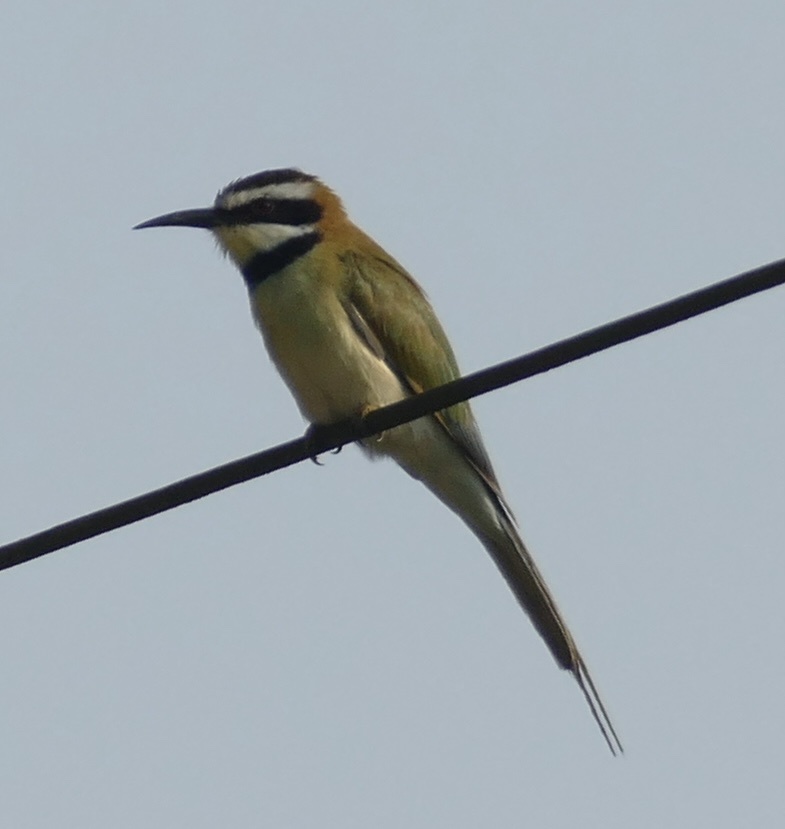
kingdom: Animalia
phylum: Chordata
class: Aves
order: Coraciiformes
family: Meropidae
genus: Merops
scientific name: Merops albicollis
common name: White-throated bee-eater
